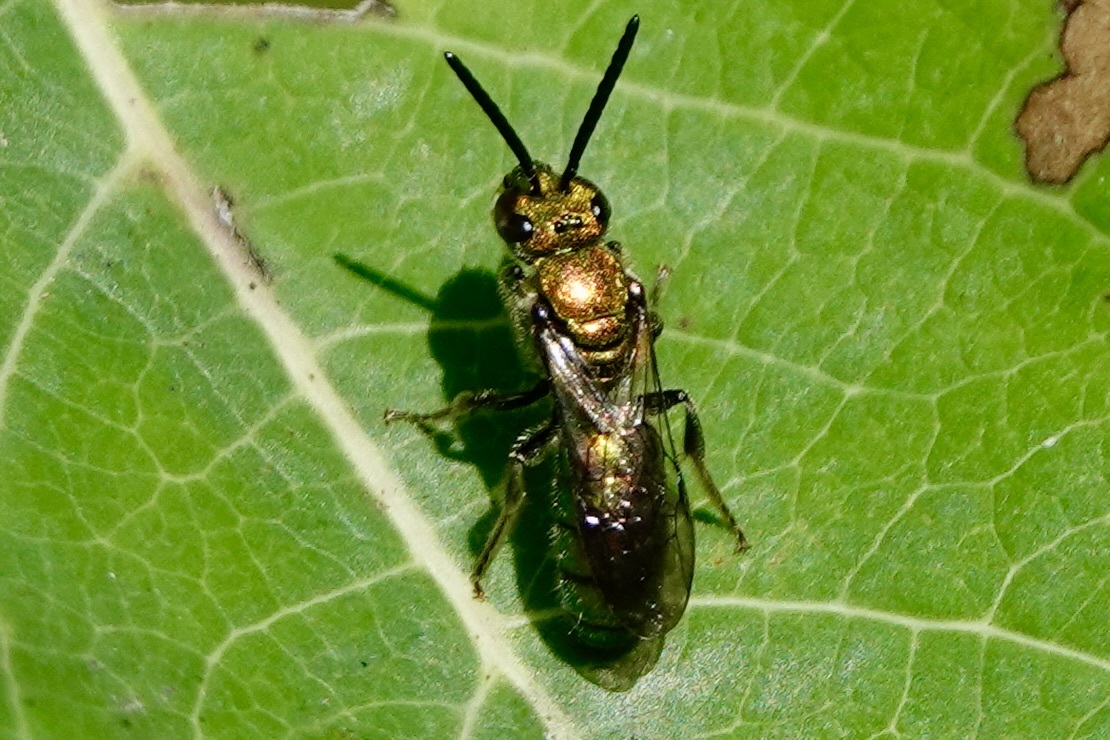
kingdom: Animalia
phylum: Arthropoda
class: Insecta
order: Hymenoptera
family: Halictidae
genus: Augochlora
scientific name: Augochlora pura
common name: Pure green sweat bee
